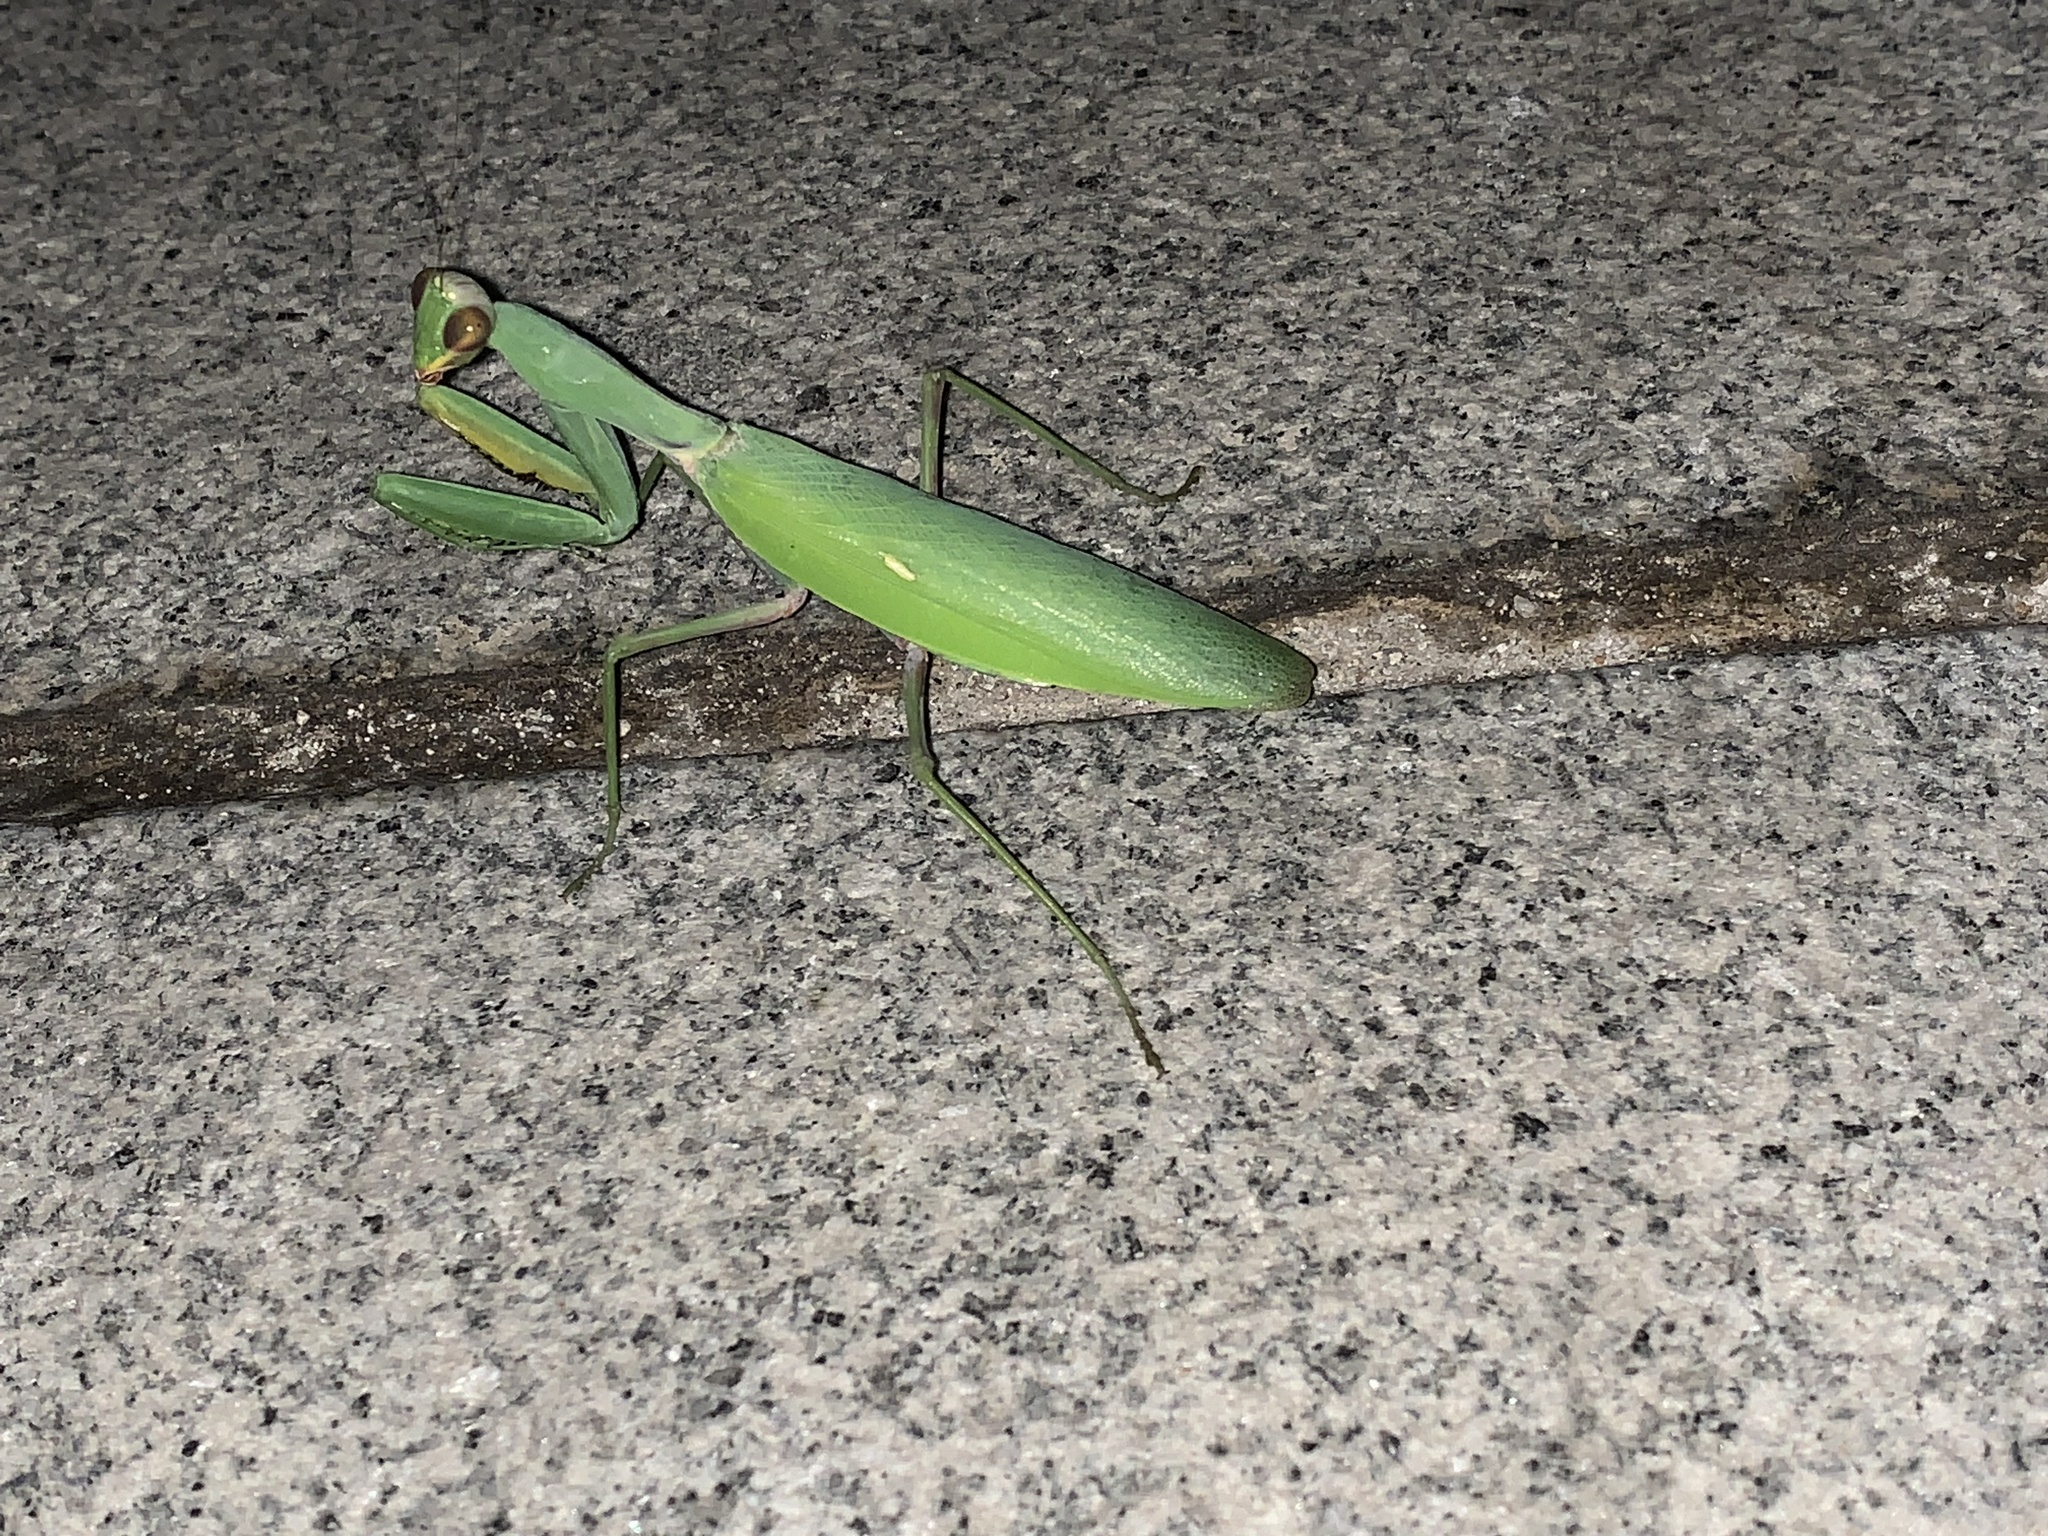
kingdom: Animalia
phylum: Arthropoda
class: Insecta
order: Mantodea
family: Mantidae
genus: Hierodula
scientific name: Hierodula transcaucasica
